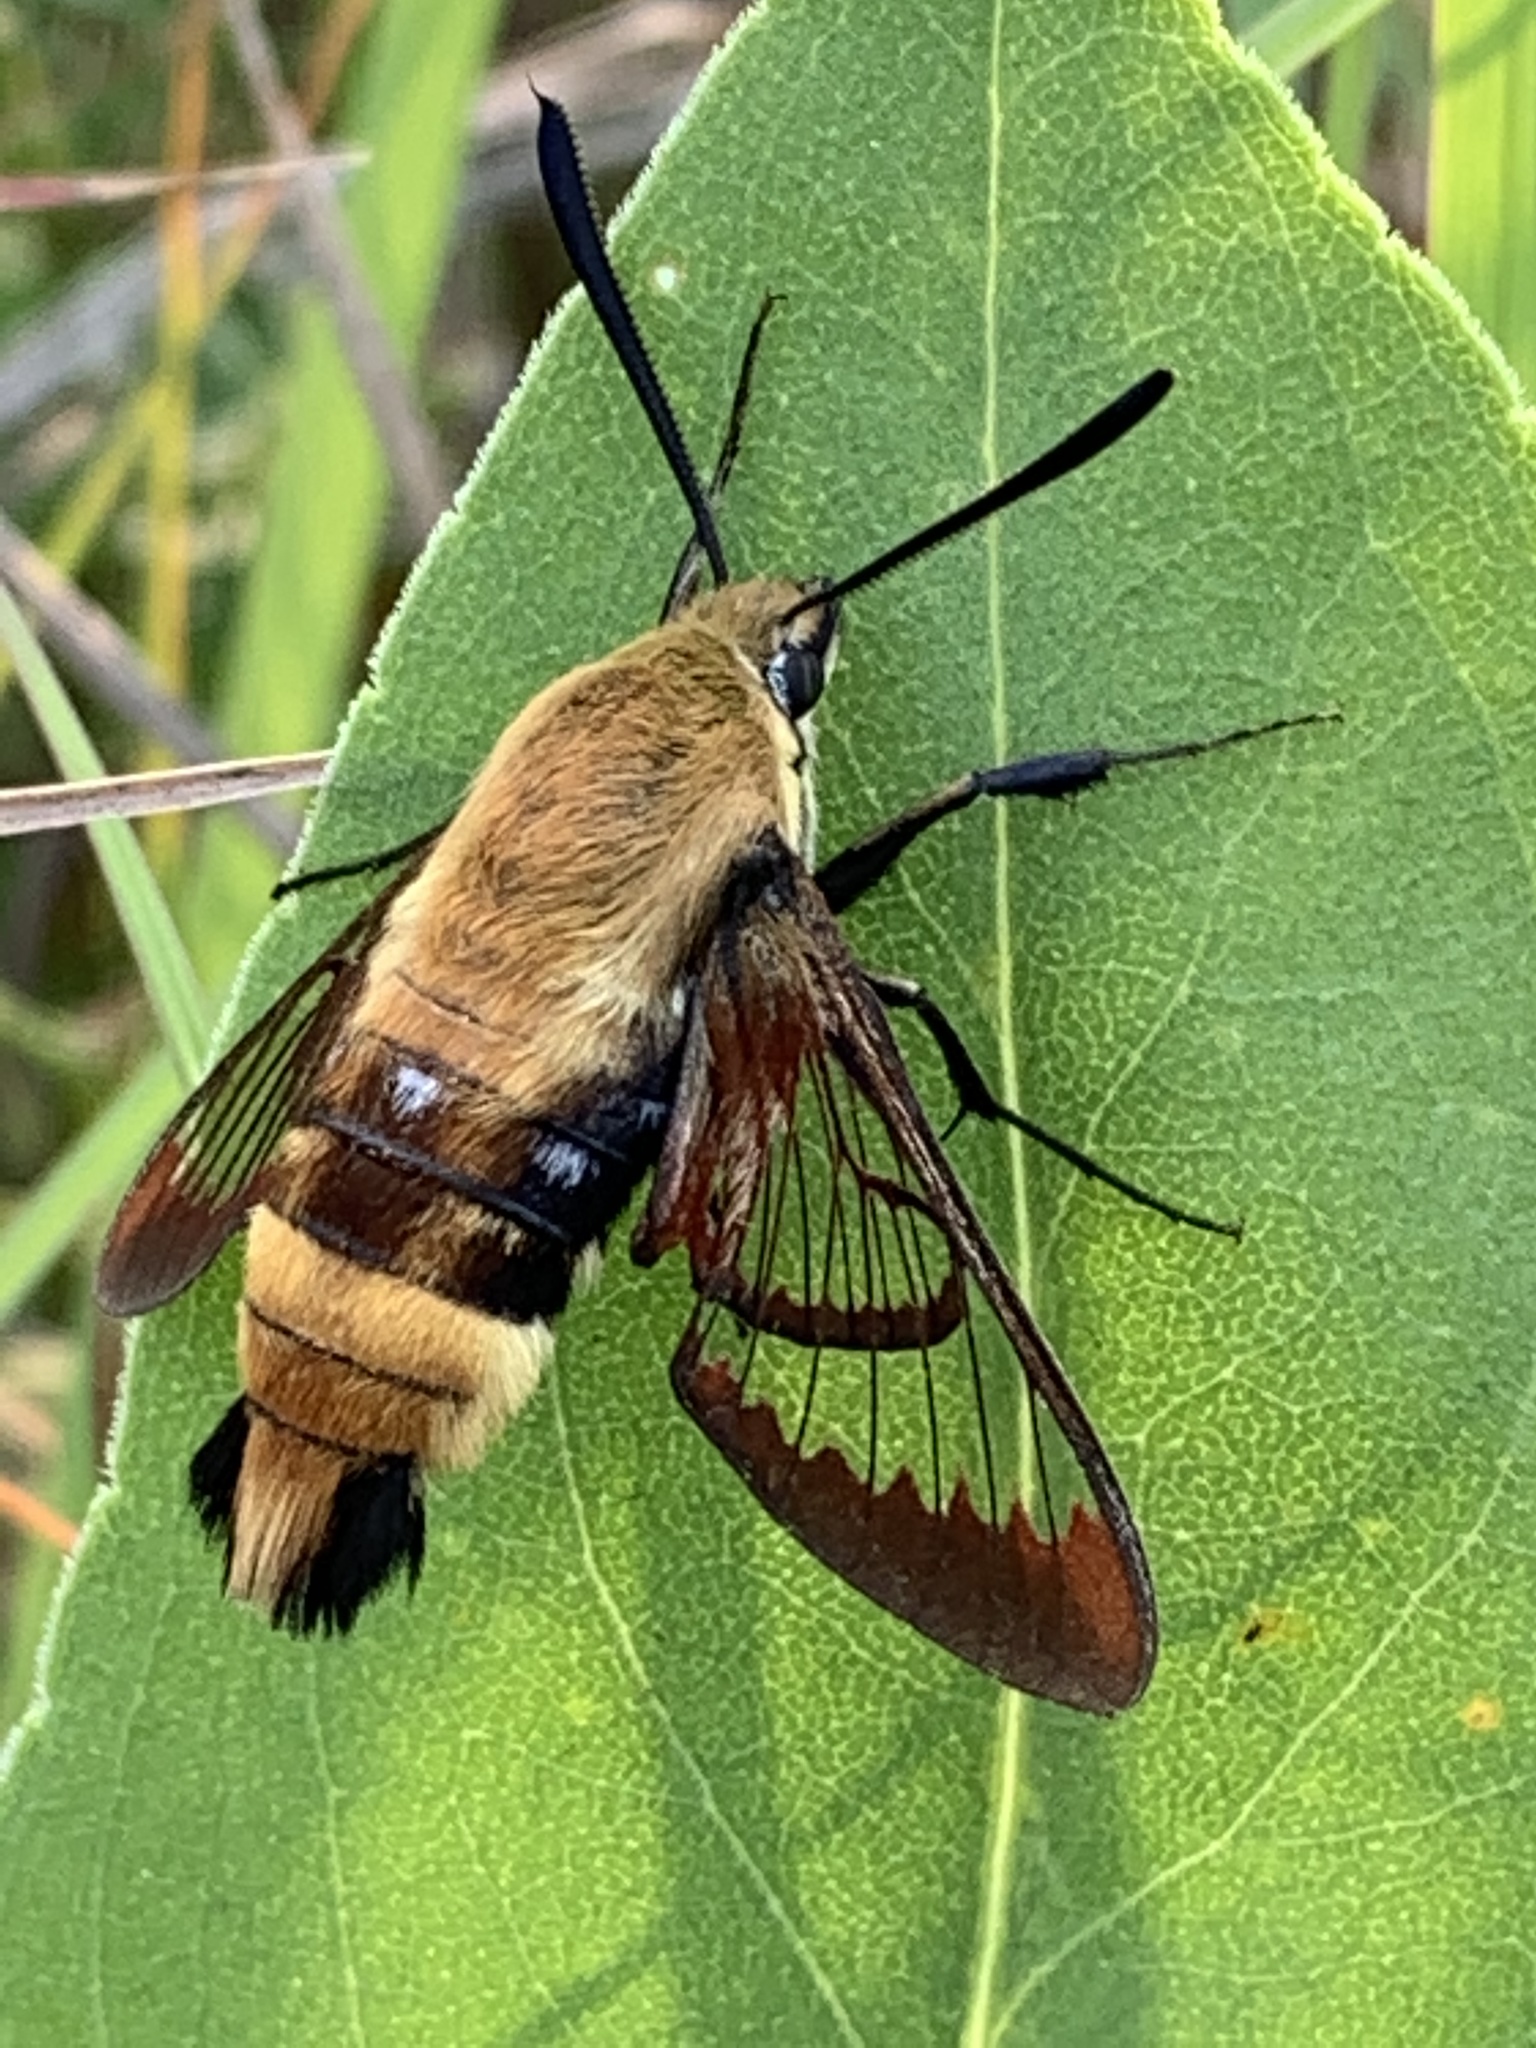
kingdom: Animalia
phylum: Arthropoda
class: Insecta
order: Lepidoptera
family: Sphingidae
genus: Hemaris
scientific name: Hemaris diffinis
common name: Bumblebee moth
